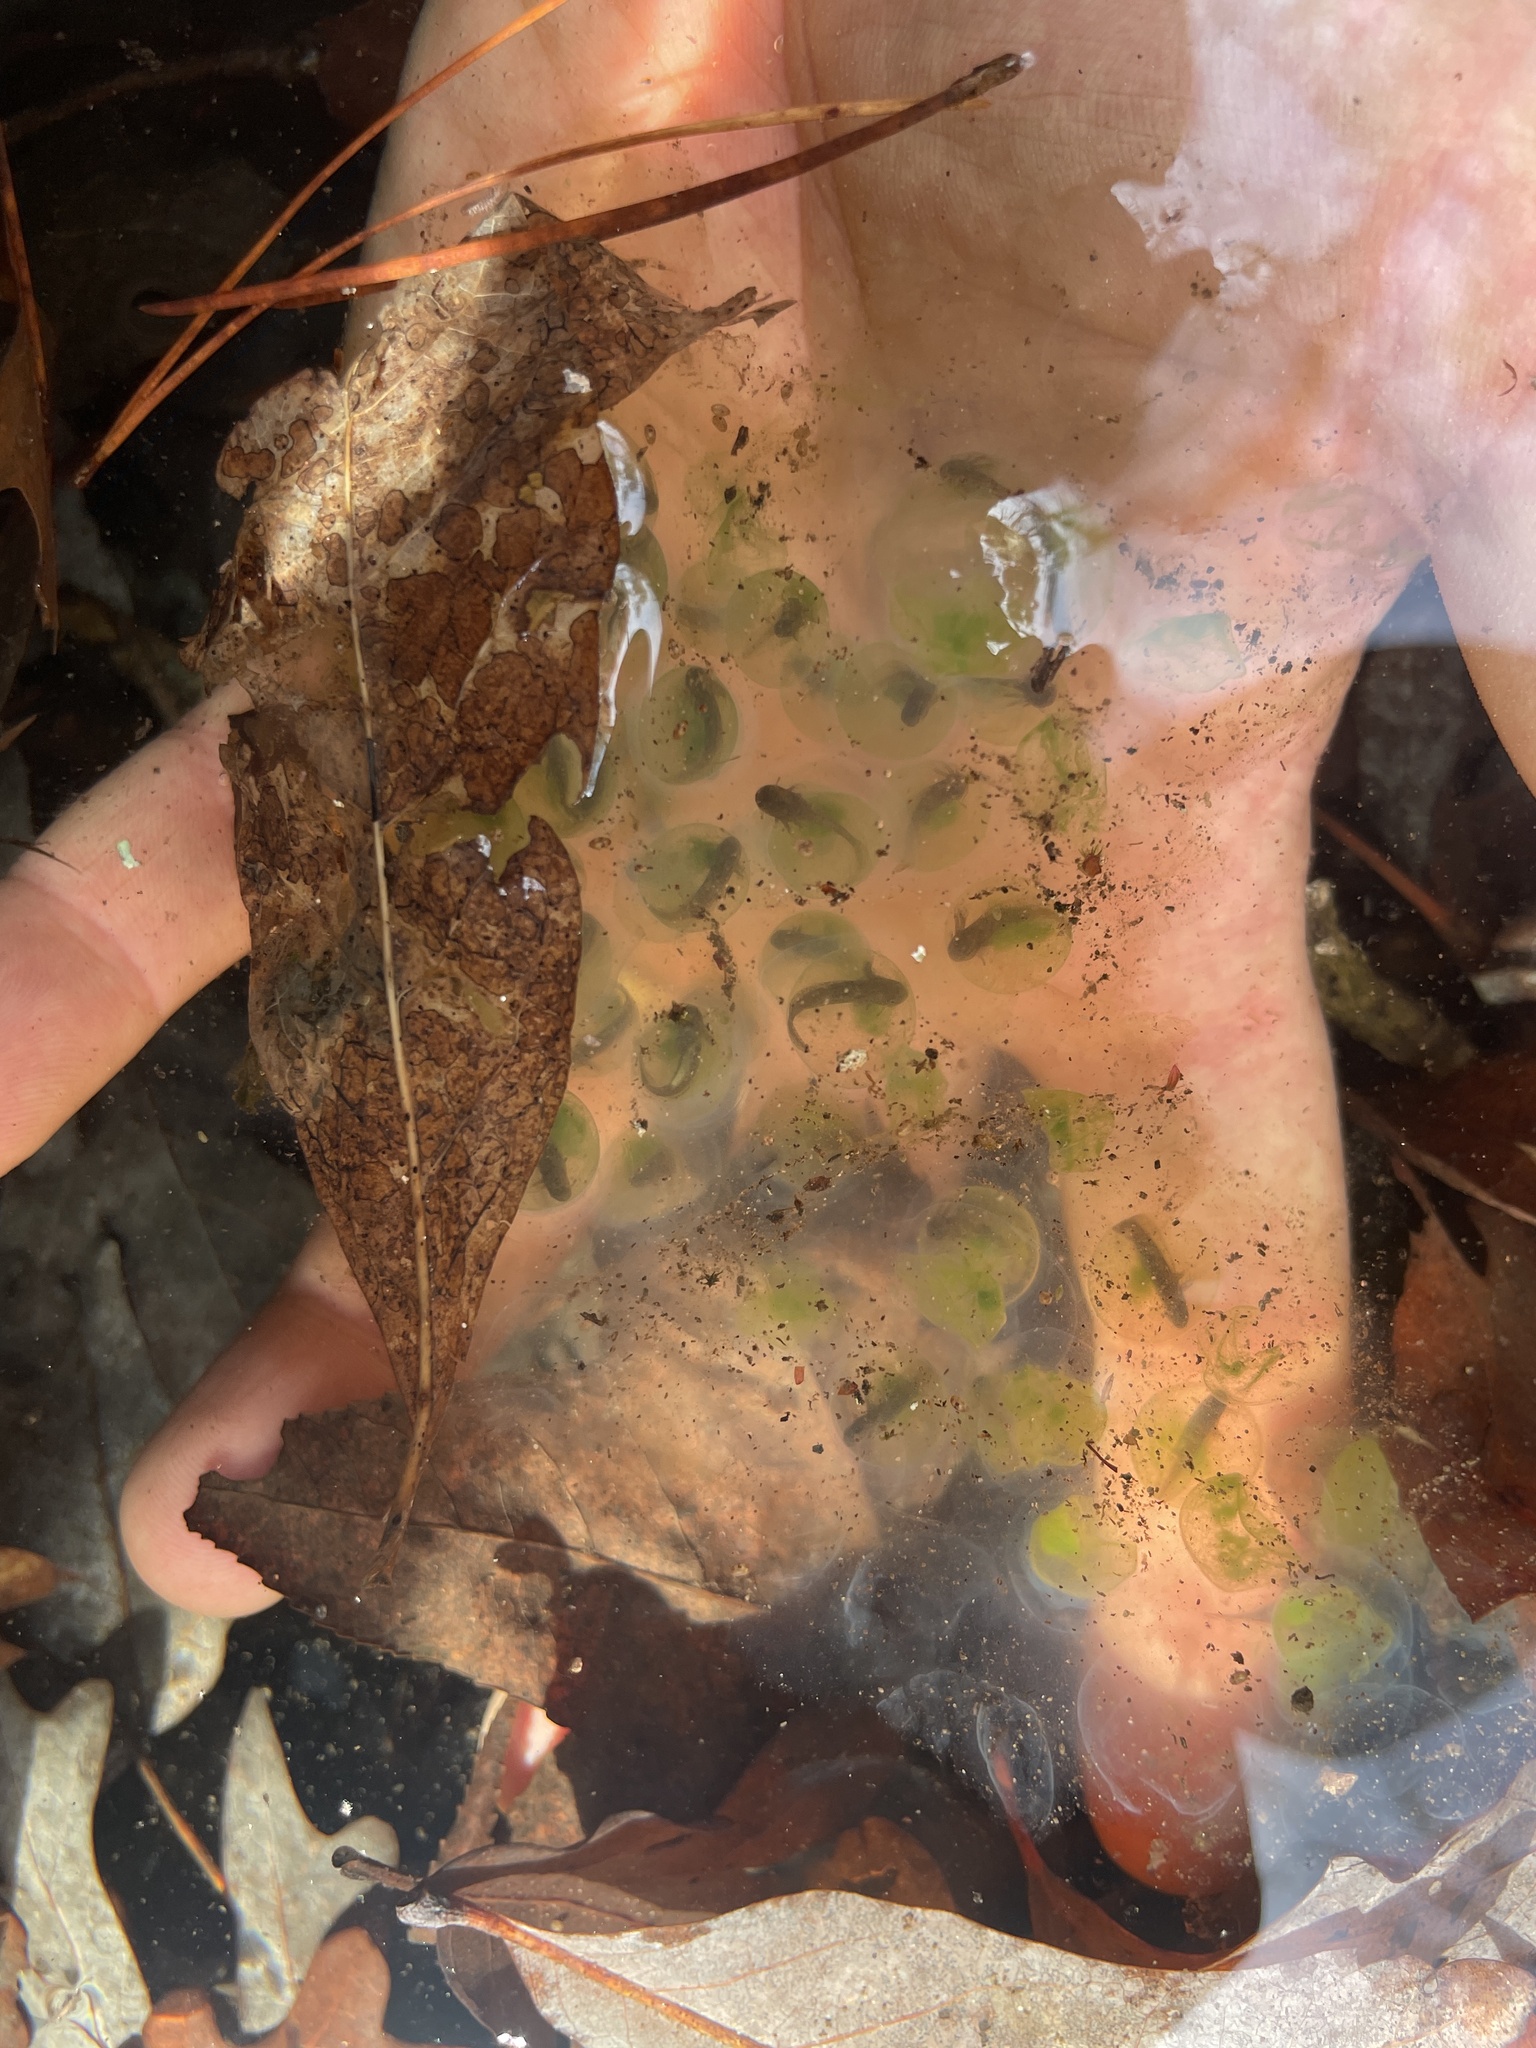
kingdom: Animalia
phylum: Chordata
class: Amphibia
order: Caudata
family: Ambystomatidae
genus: Ambystoma
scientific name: Ambystoma maculatum
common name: Spotted salamander
